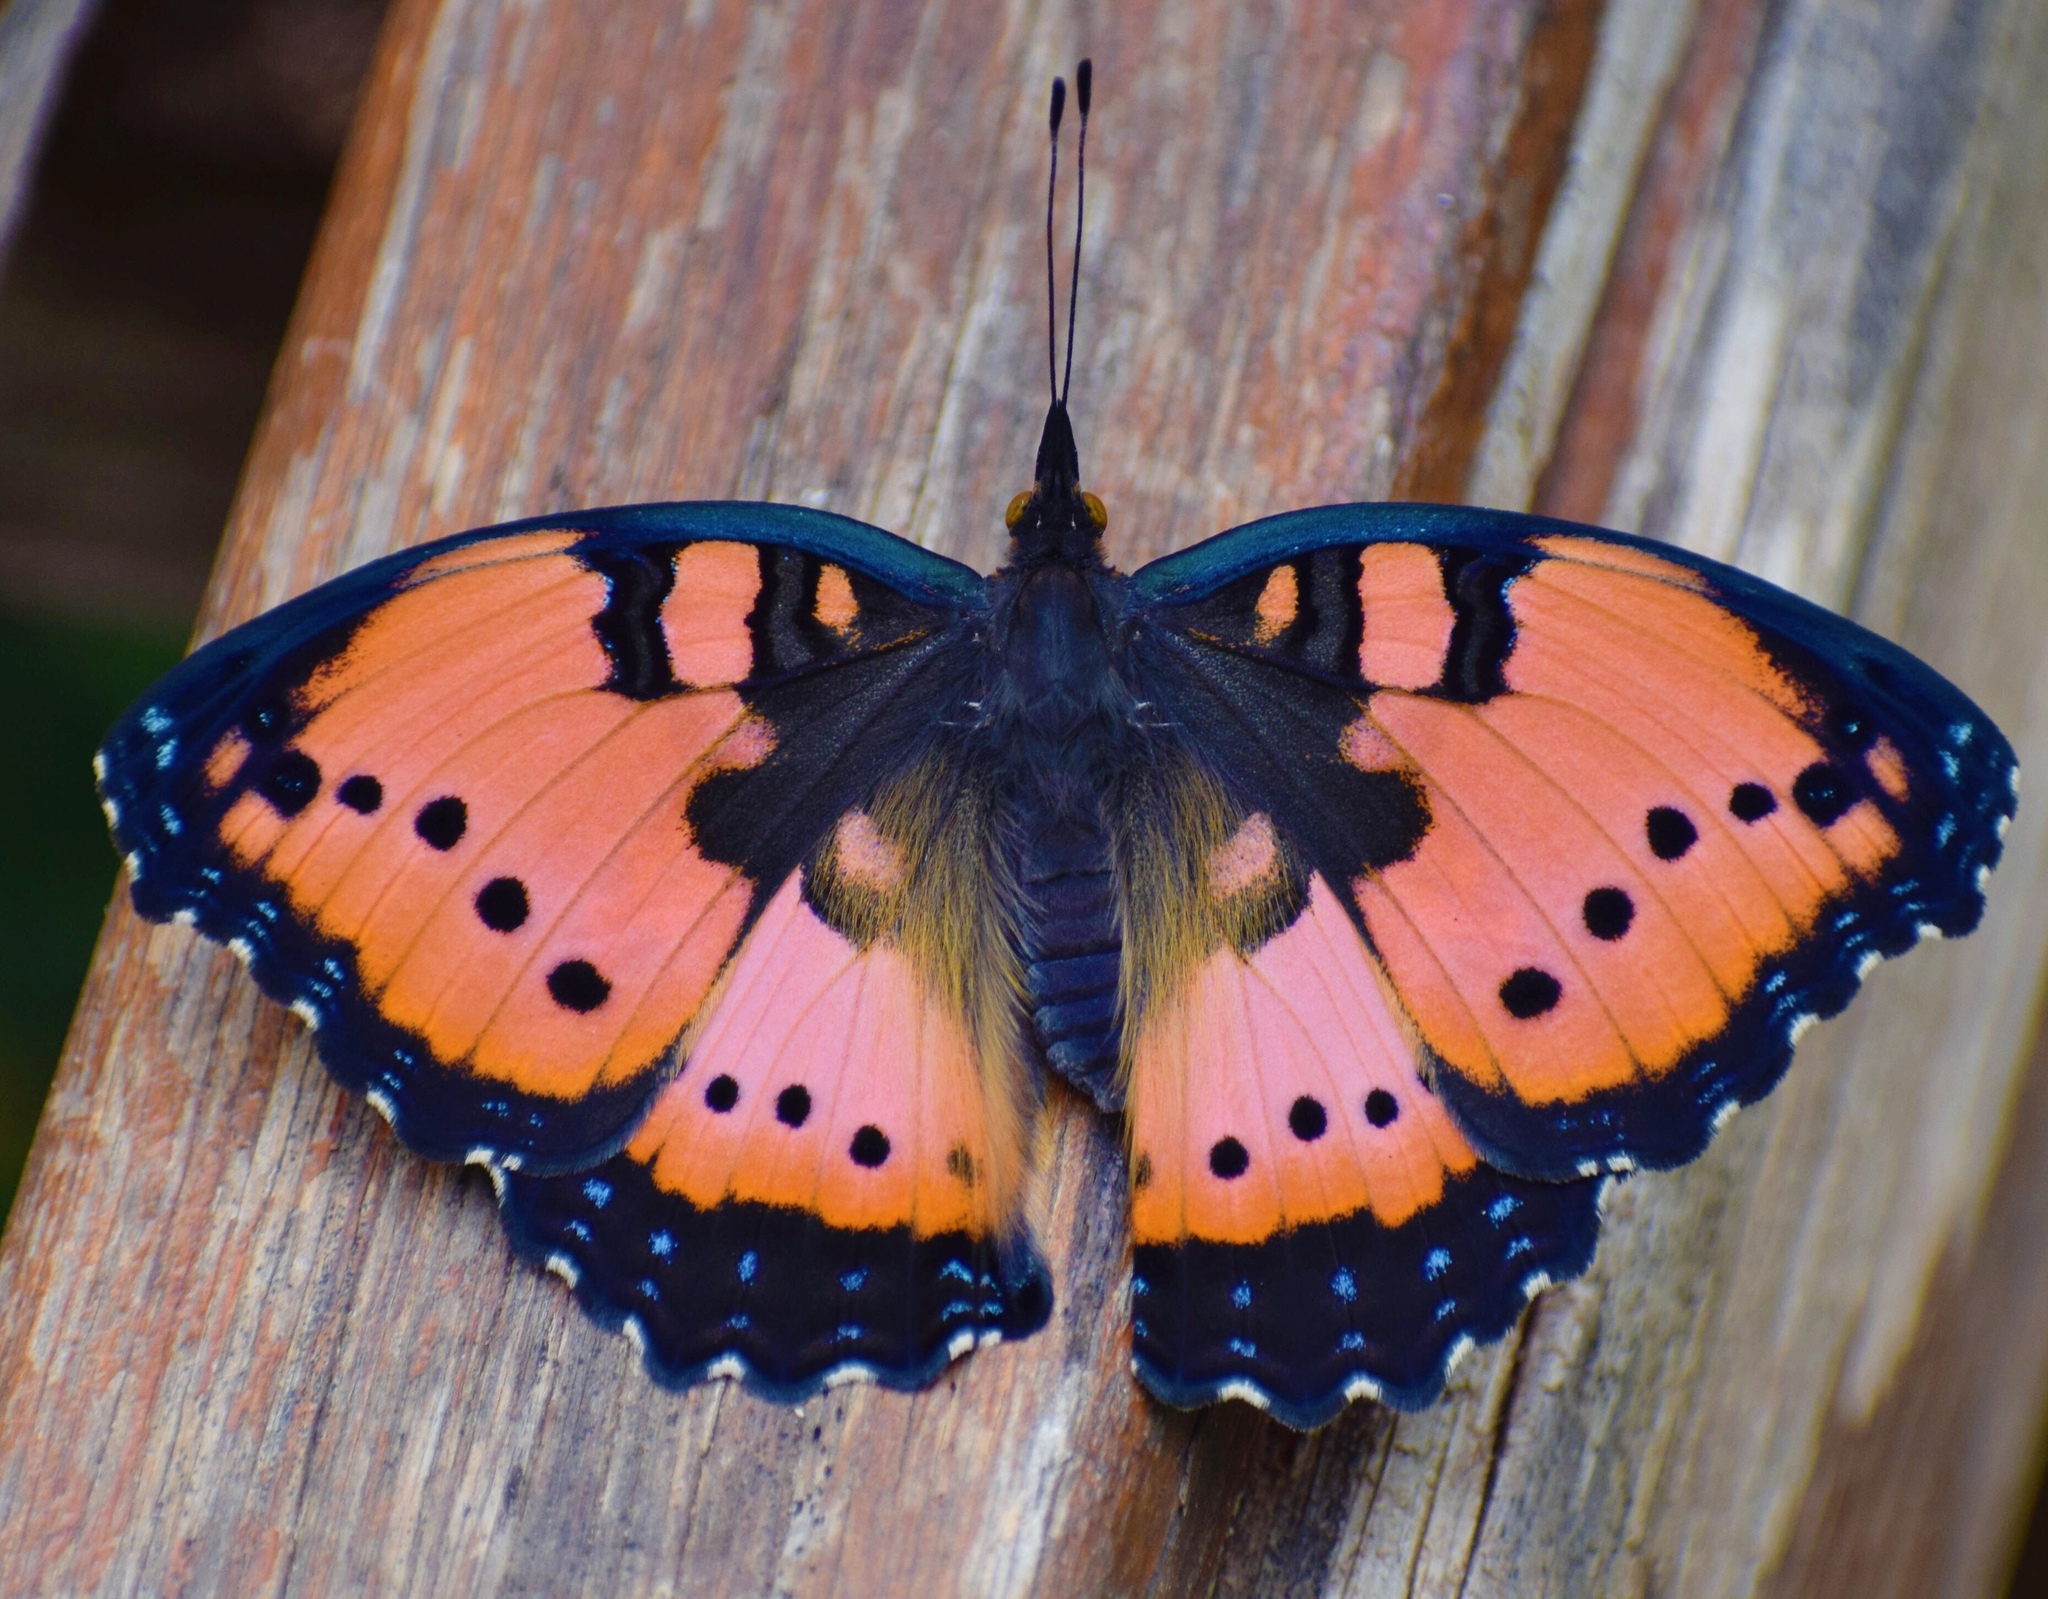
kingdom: Animalia
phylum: Arthropoda
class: Insecta
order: Lepidoptera
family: Nymphalidae
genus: Precis
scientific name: Precis octavia
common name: Gaudy commodore
